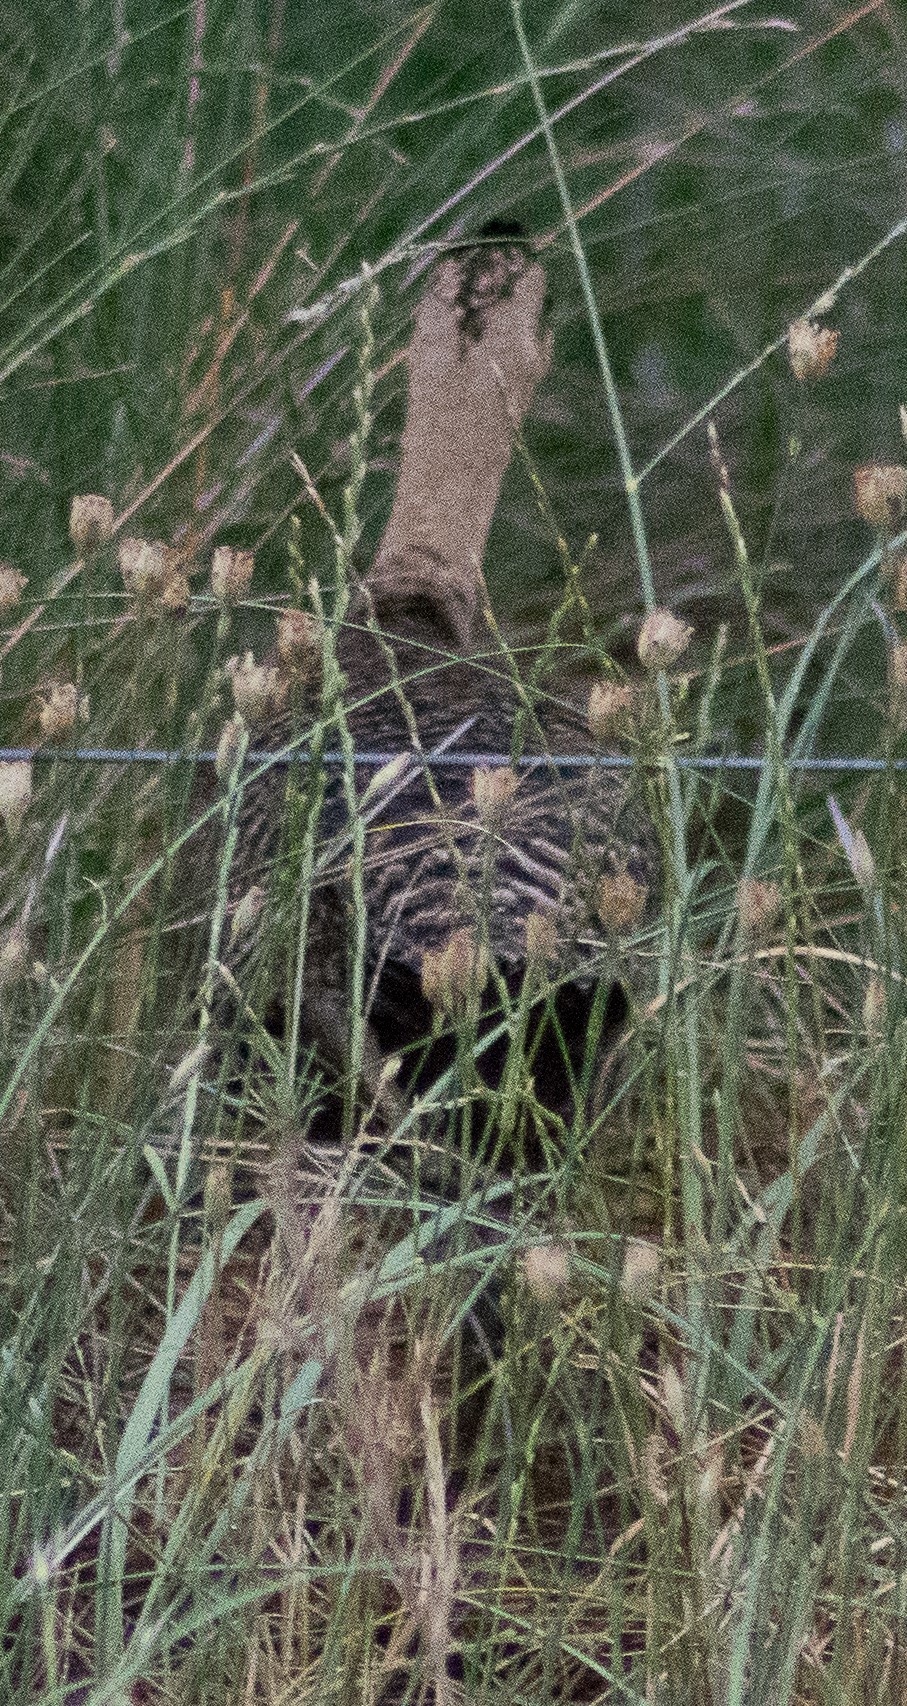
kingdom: Animalia
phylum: Chordata
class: Aves
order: Tinamiformes
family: Tinamidae
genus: Rhynchotus
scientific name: Rhynchotus rufescens
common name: Red-winged tinamou
